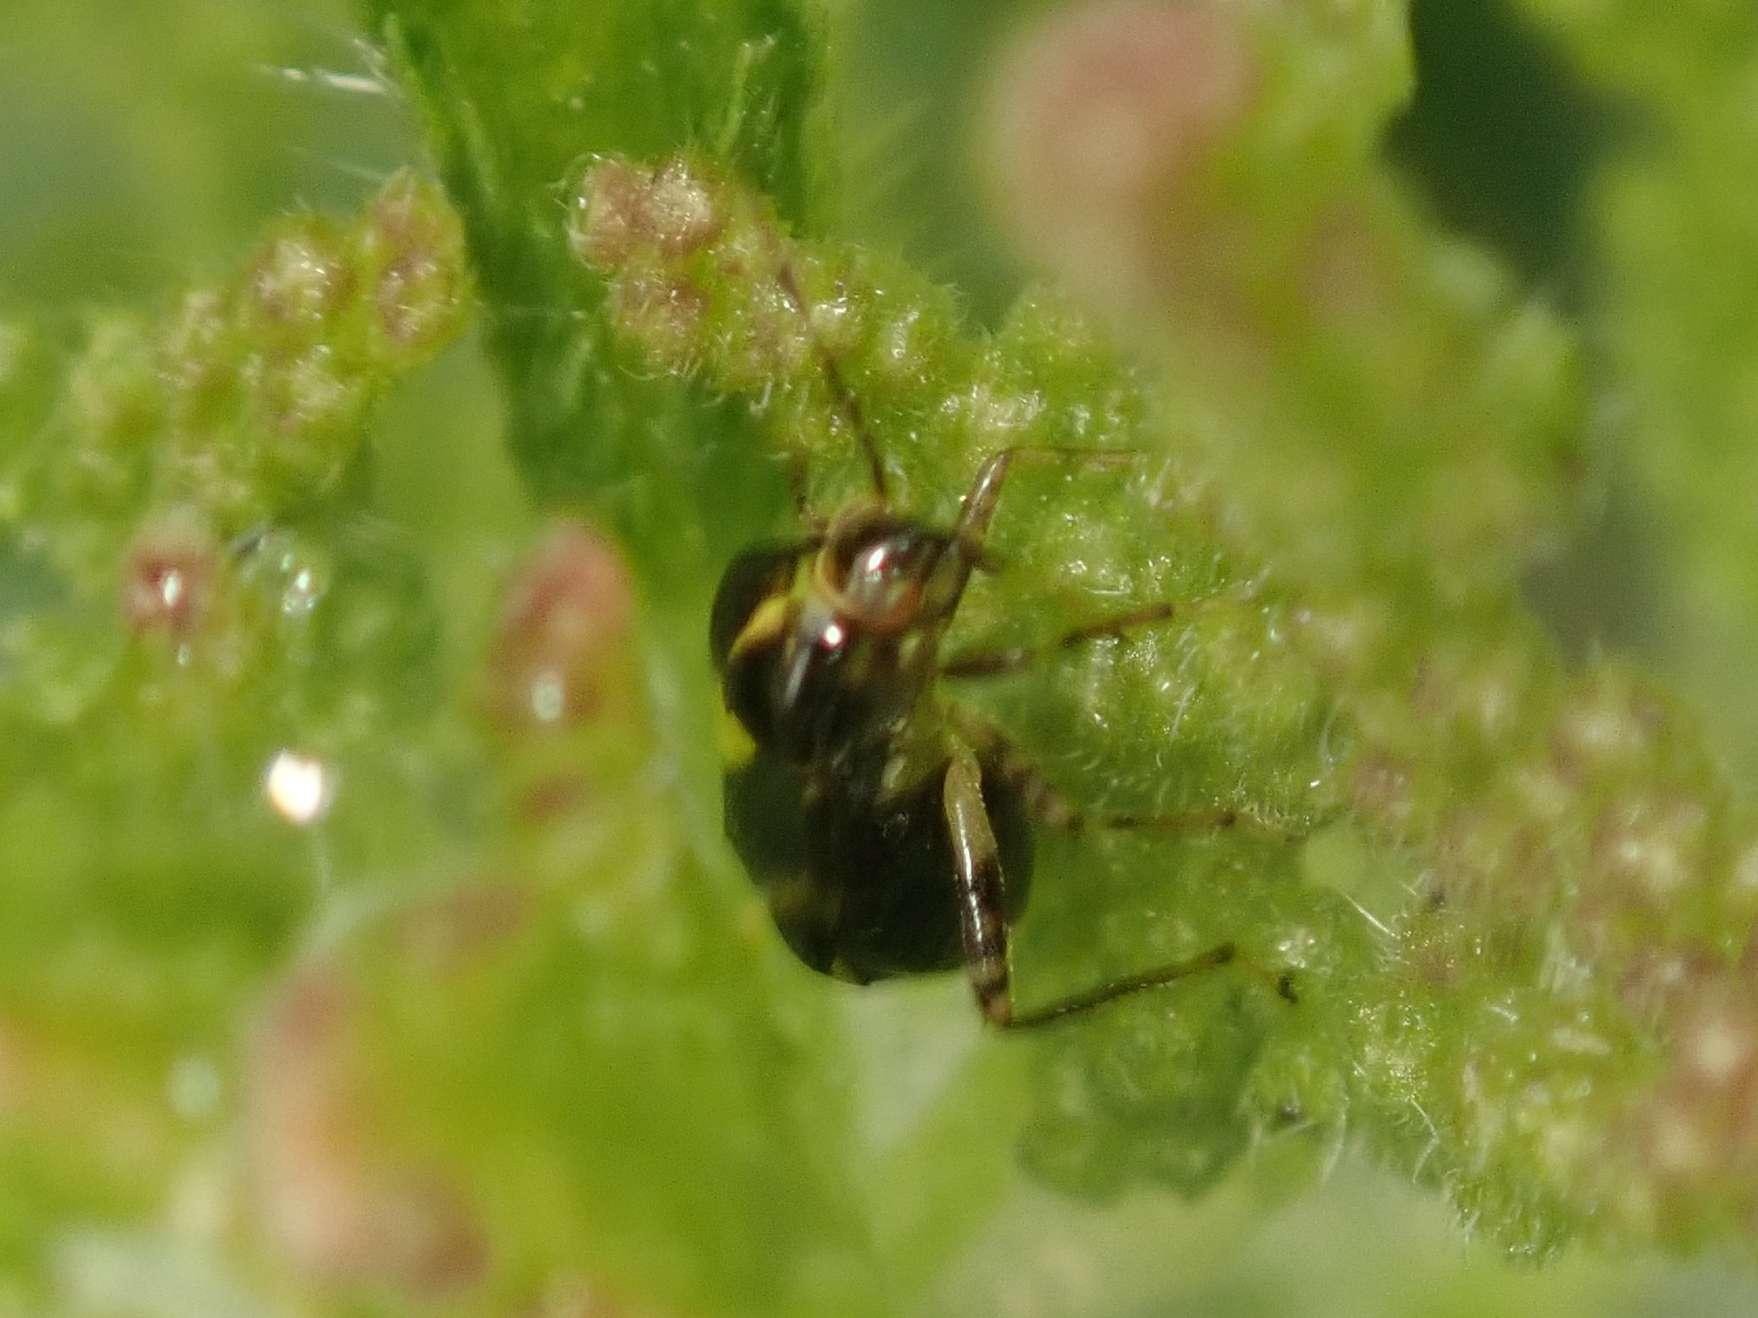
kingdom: Animalia
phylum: Arthropoda
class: Insecta
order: Hemiptera
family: Miridae
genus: Liocoris
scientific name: Liocoris tripustulatus
